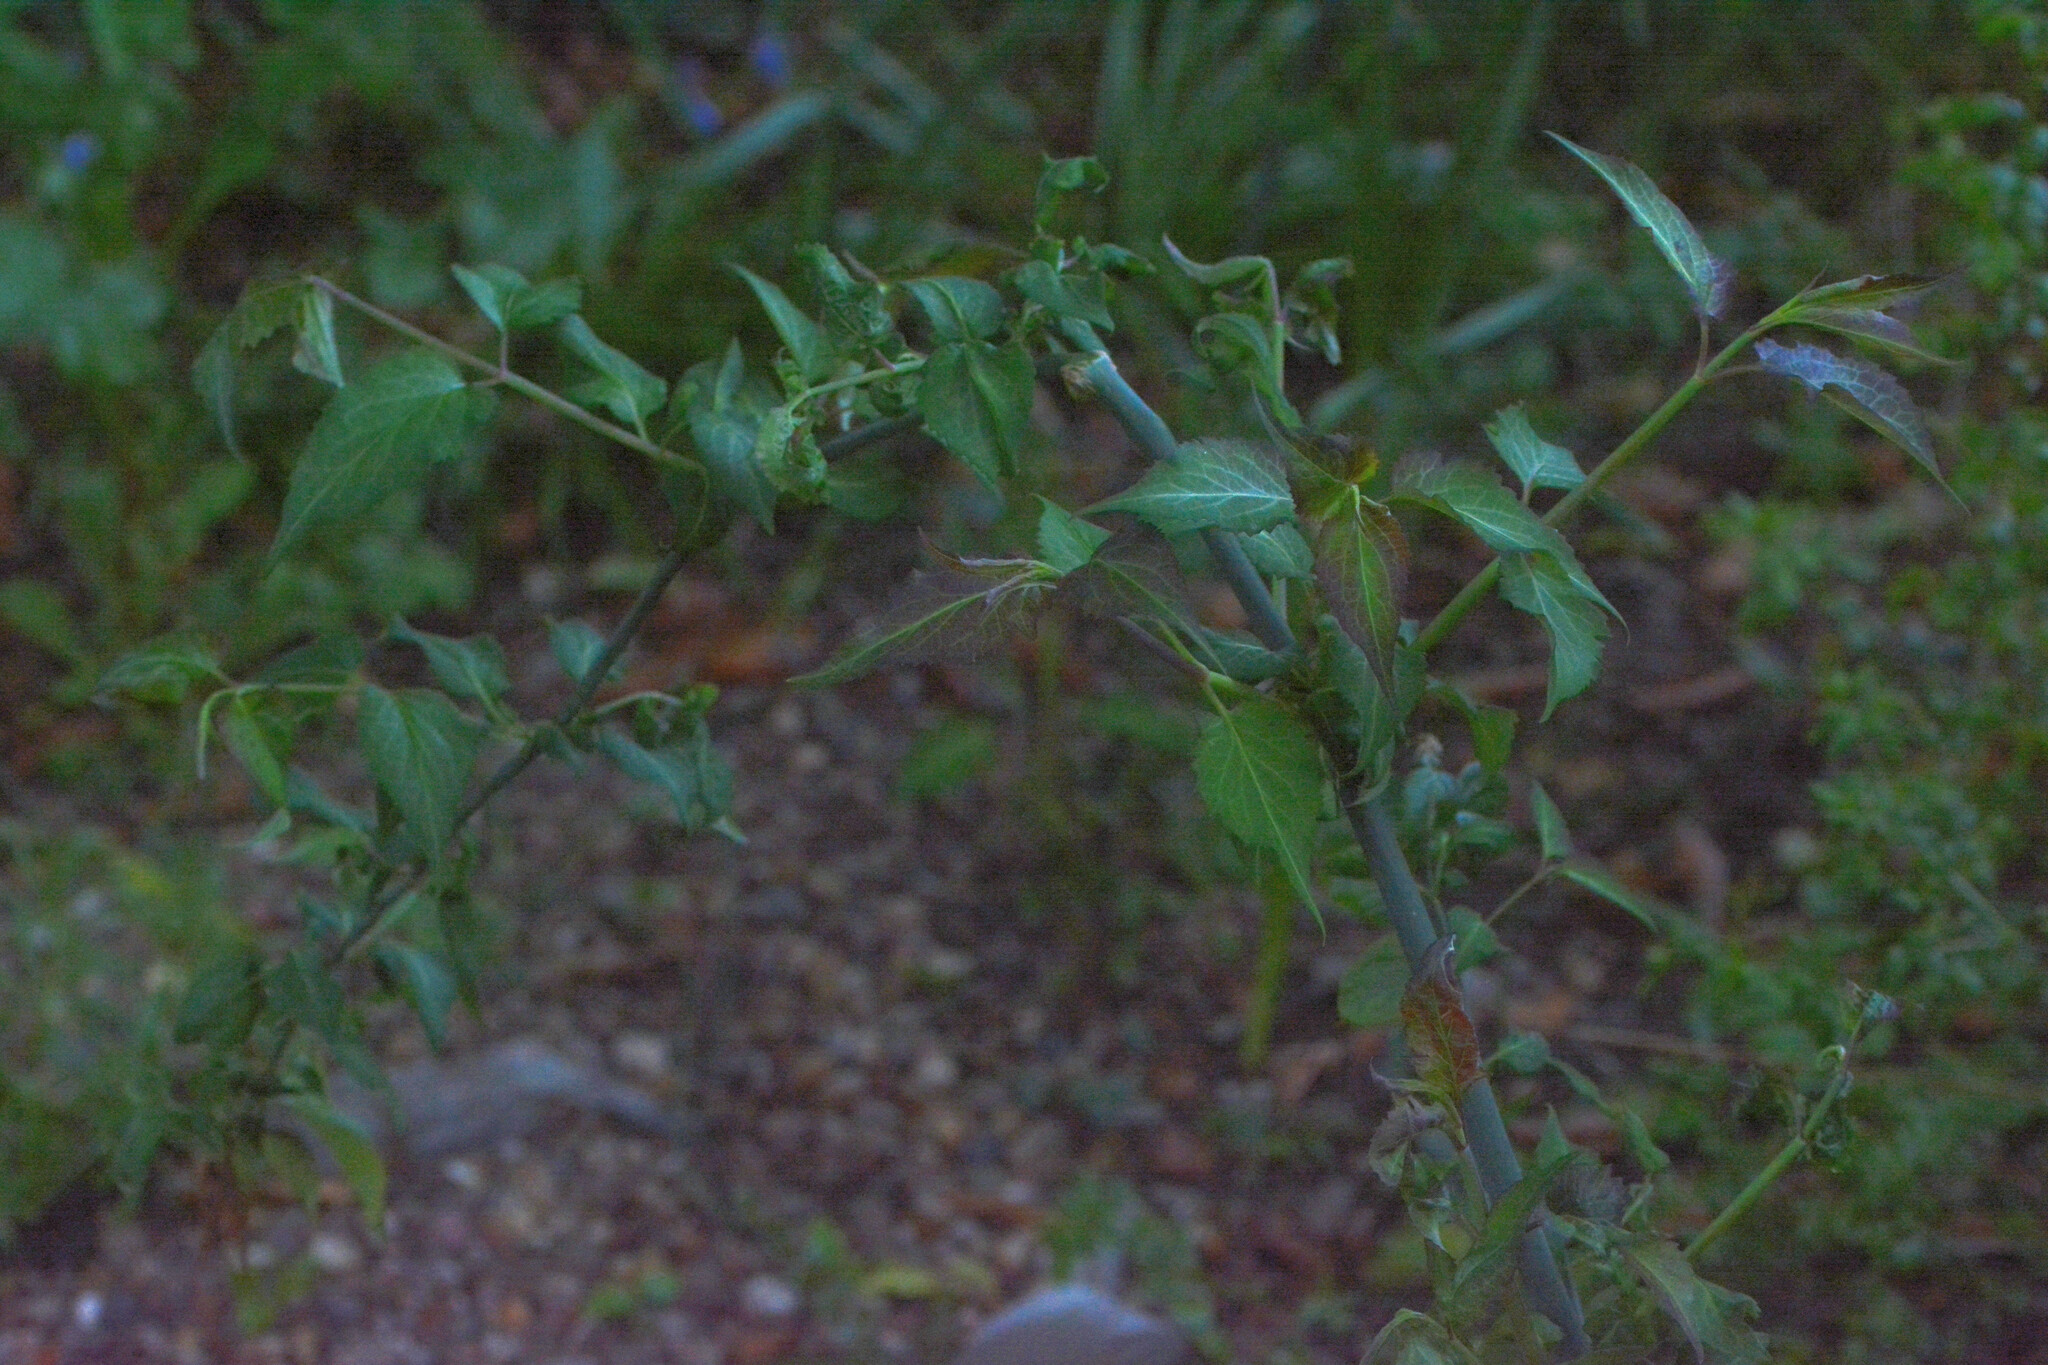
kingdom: Plantae
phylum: Tracheophyta
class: Magnoliopsida
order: Dipsacales
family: Caprifoliaceae
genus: Leycesteria
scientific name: Leycesteria formosa
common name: Himalayan honeysuckle
